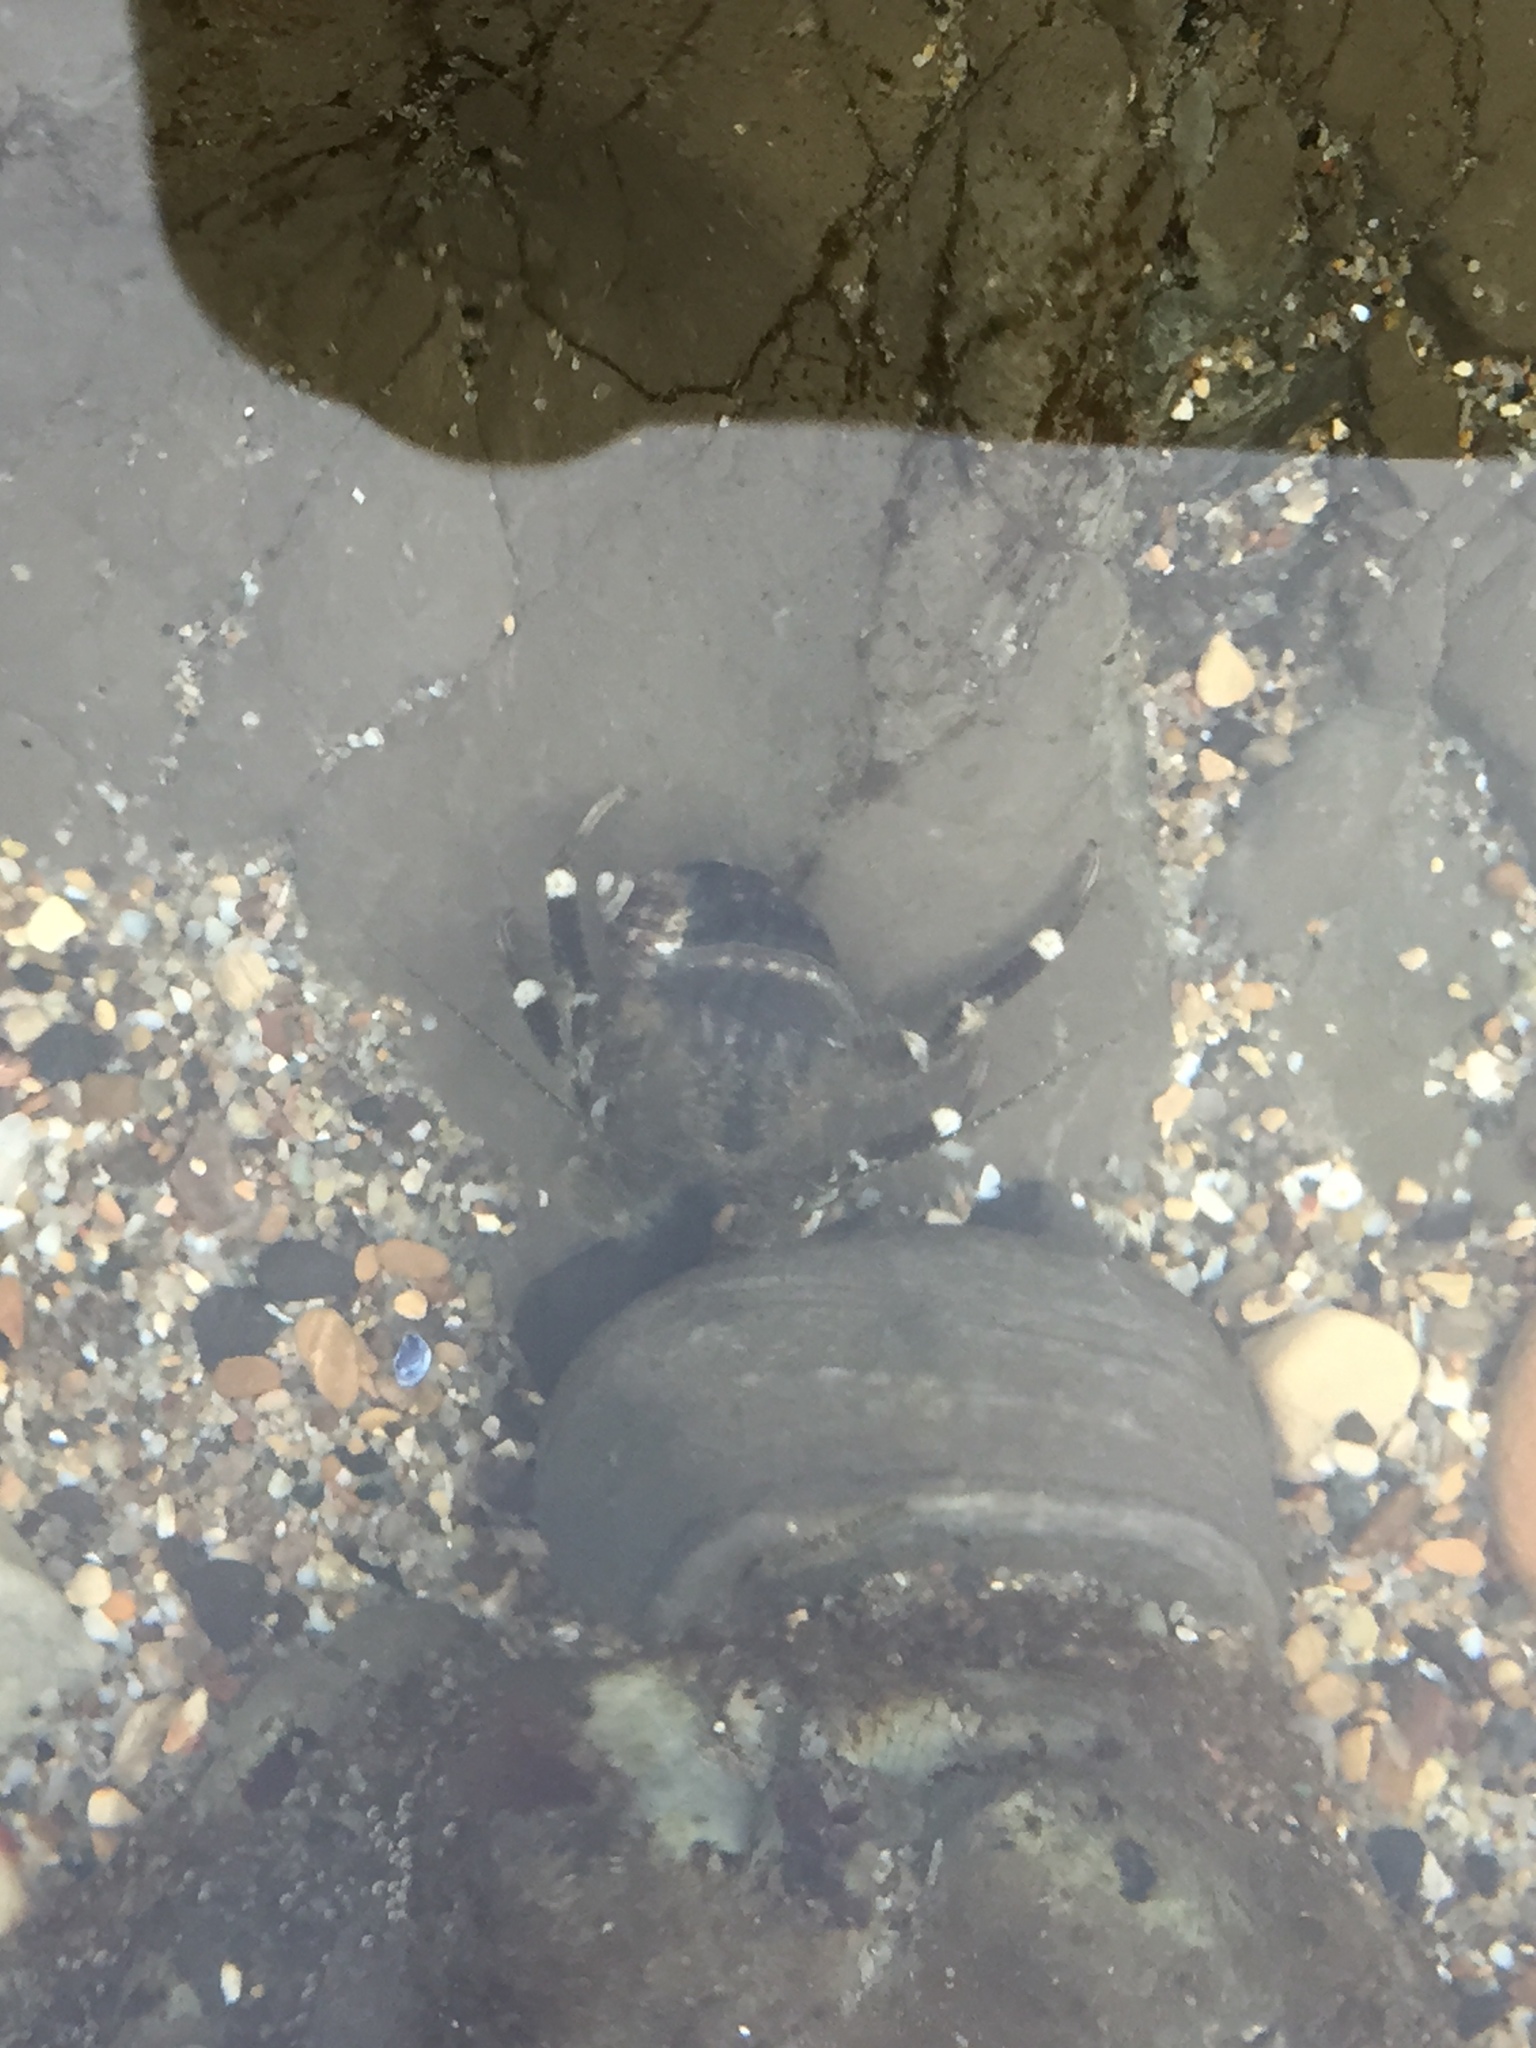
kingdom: Animalia
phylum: Arthropoda
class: Malacostraca
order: Decapoda
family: Paguridae
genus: Pagurus
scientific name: Pagurus hirsutiusculus
